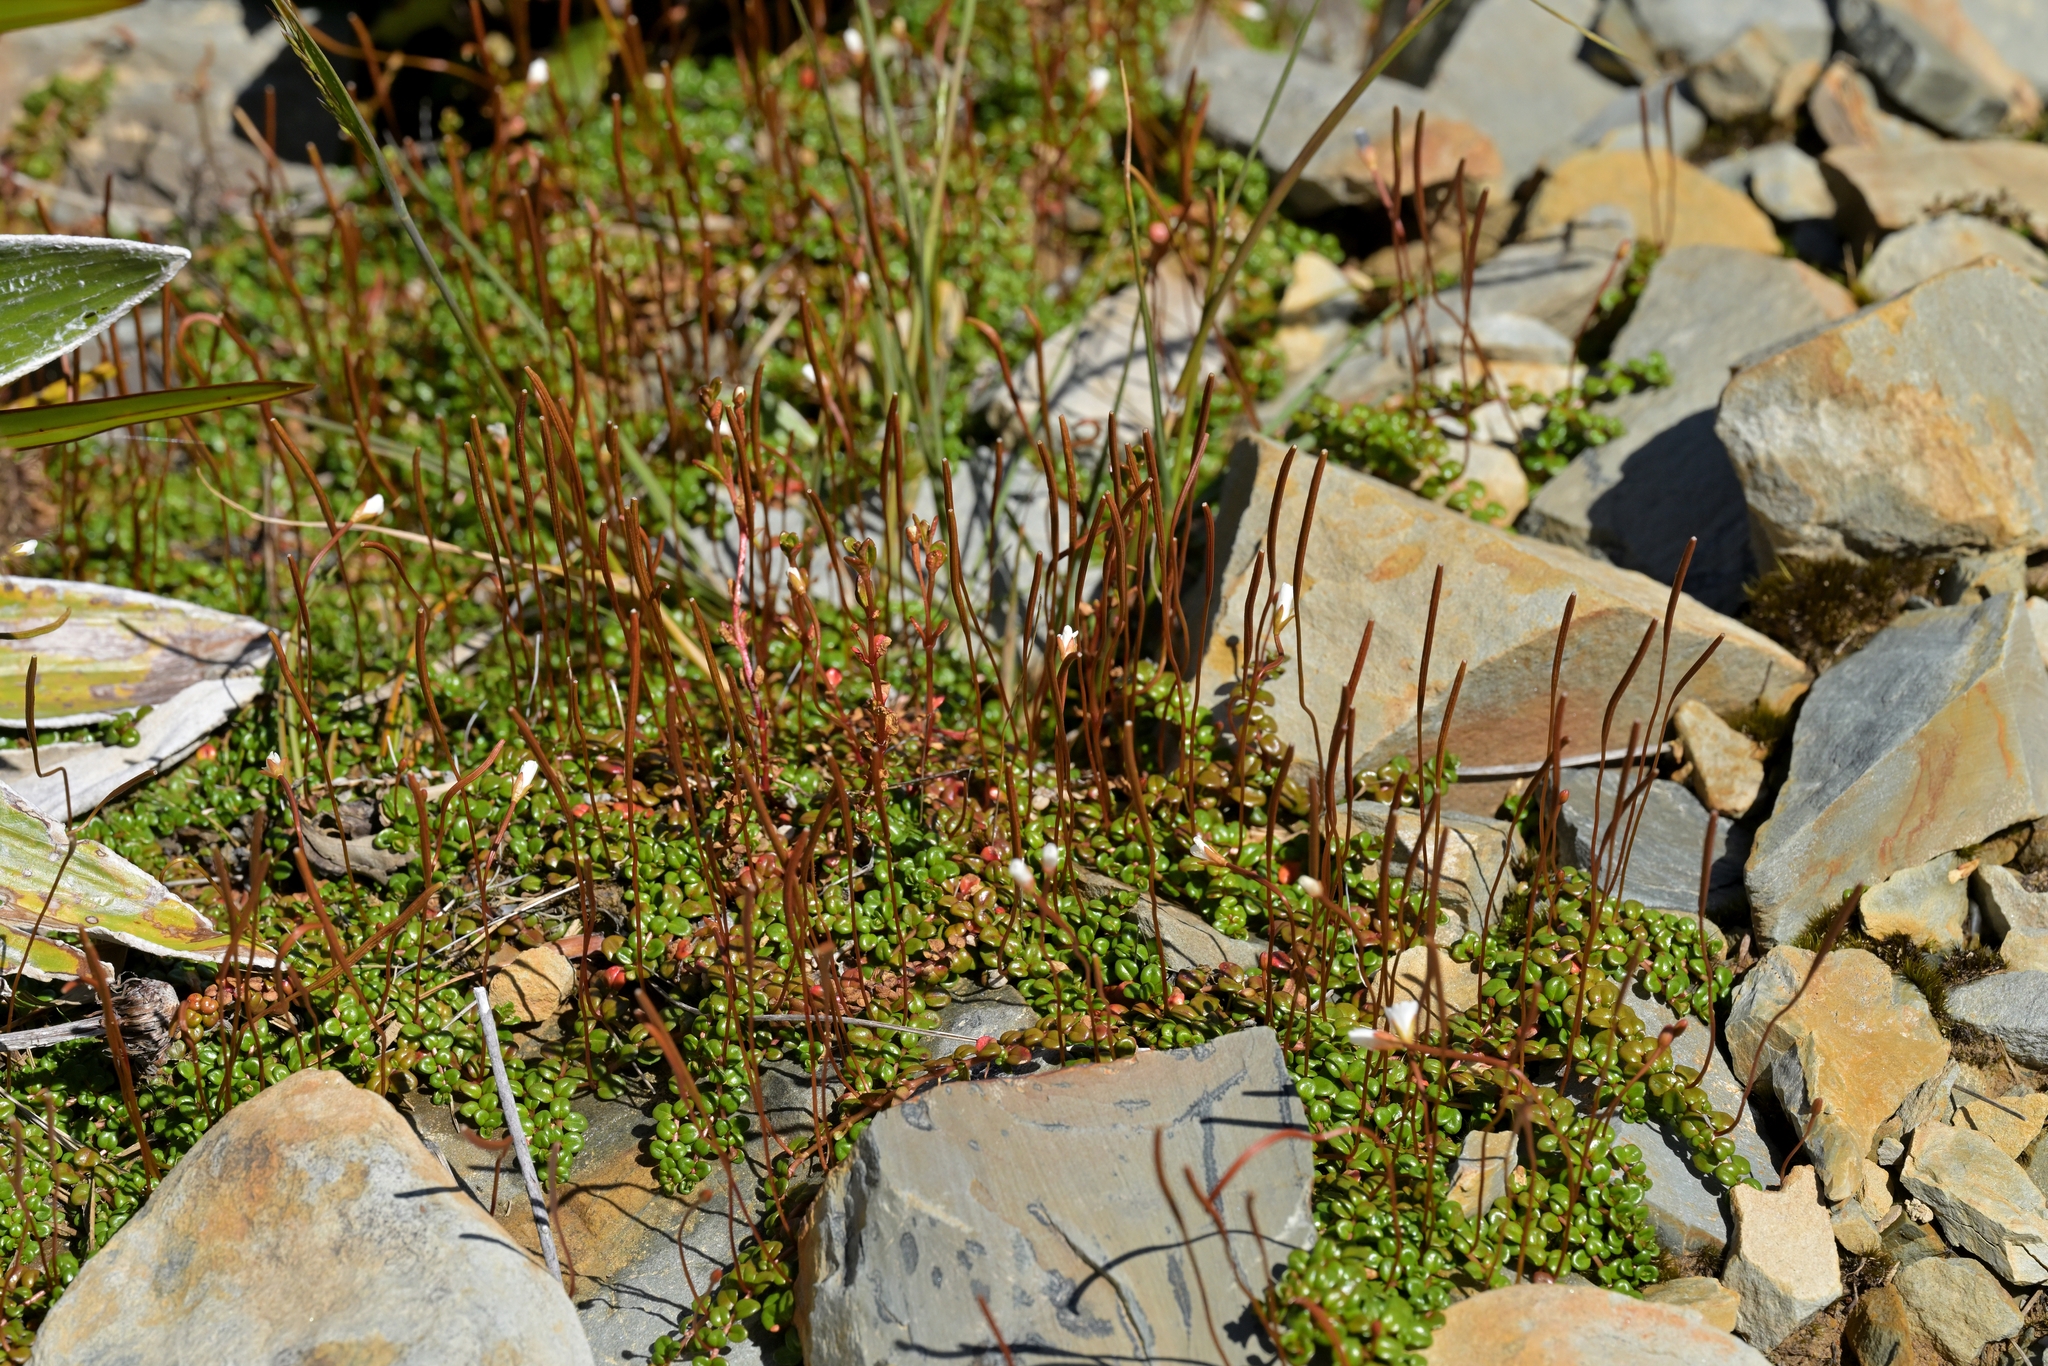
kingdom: Plantae
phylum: Tracheophyta
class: Magnoliopsida
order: Myrtales
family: Onagraceae
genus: Epilobium
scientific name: Epilobium pernitens
